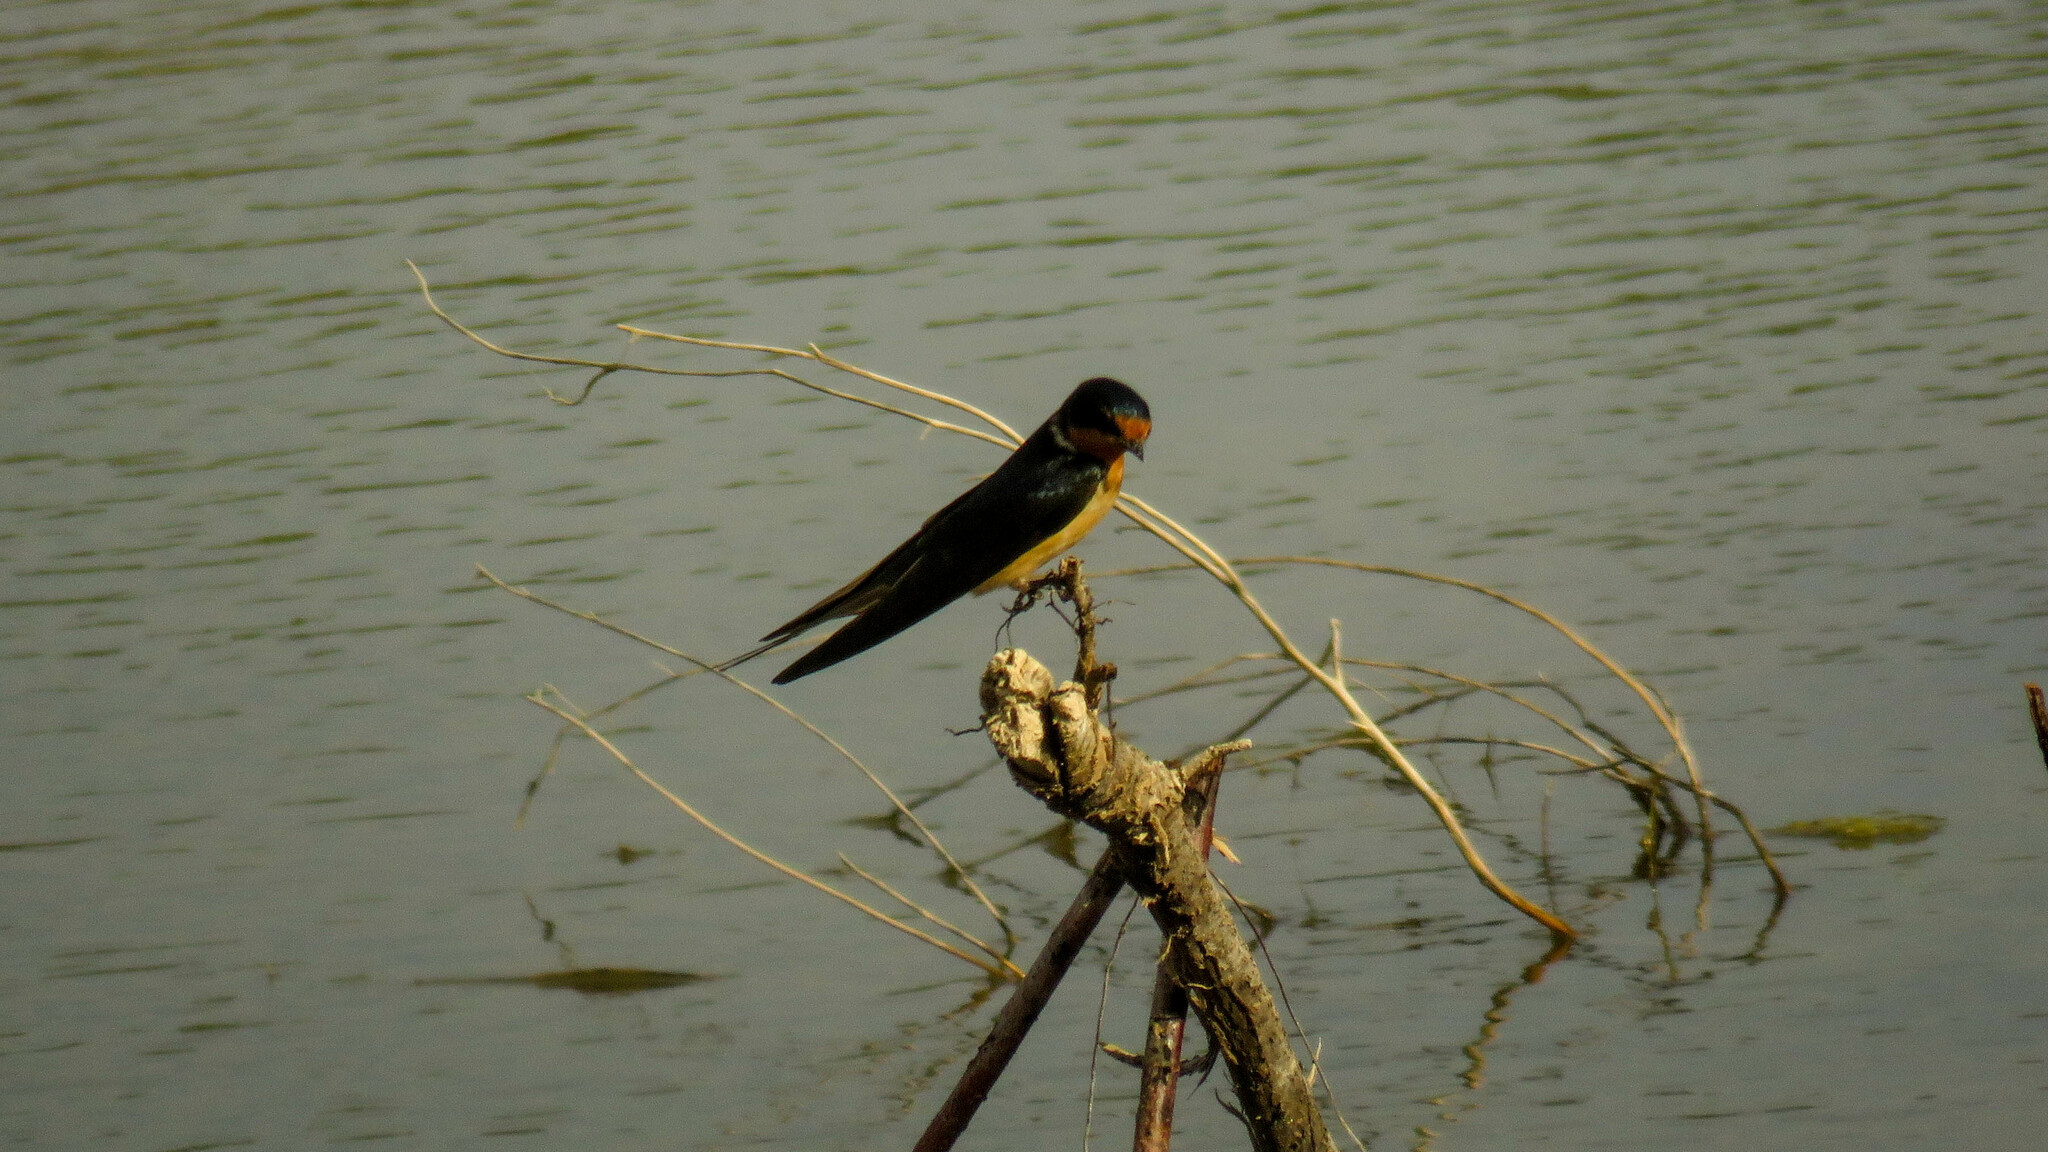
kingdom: Animalia
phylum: Chordata
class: Aves
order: Passeriformes
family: Hirundinidae
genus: Hirundo
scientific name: Hirundo rustica
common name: Barn swallow
